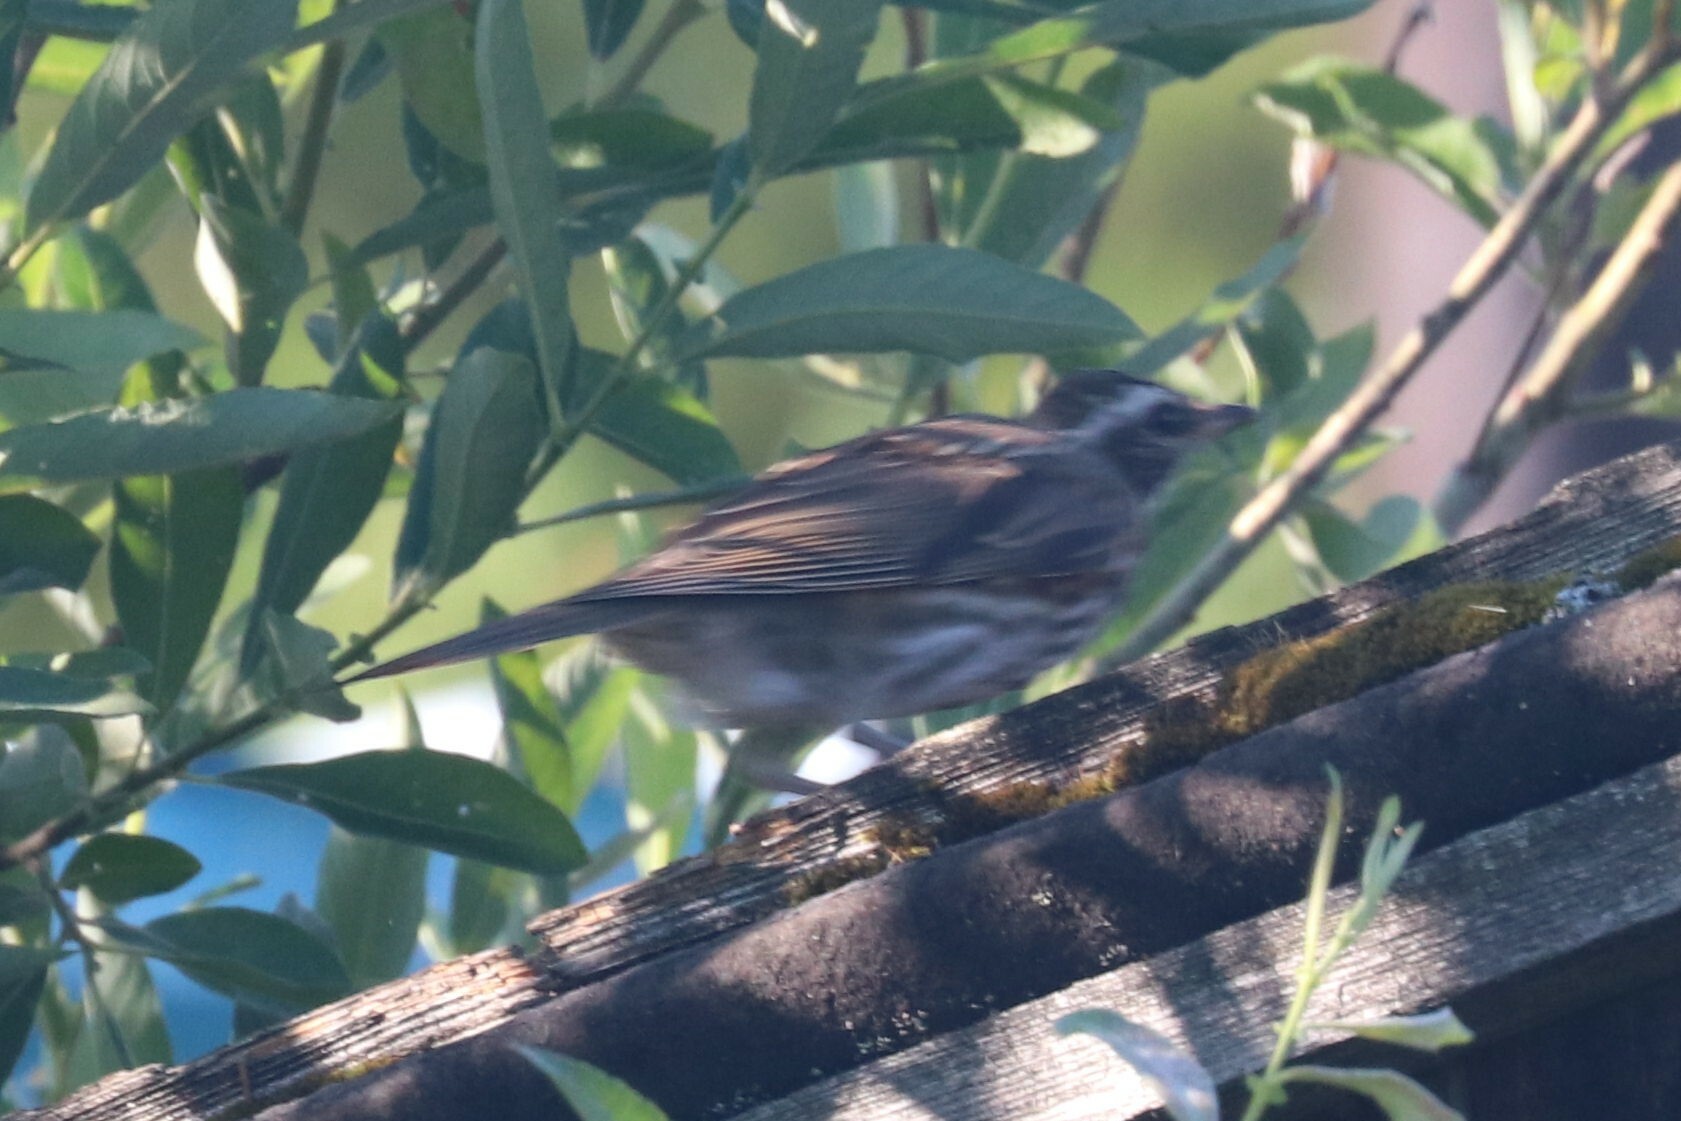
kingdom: Animalia
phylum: Chordata
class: Aves
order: Passeriformes
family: Turdidae
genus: Turdus
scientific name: Turdus iliacus
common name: Redwing
